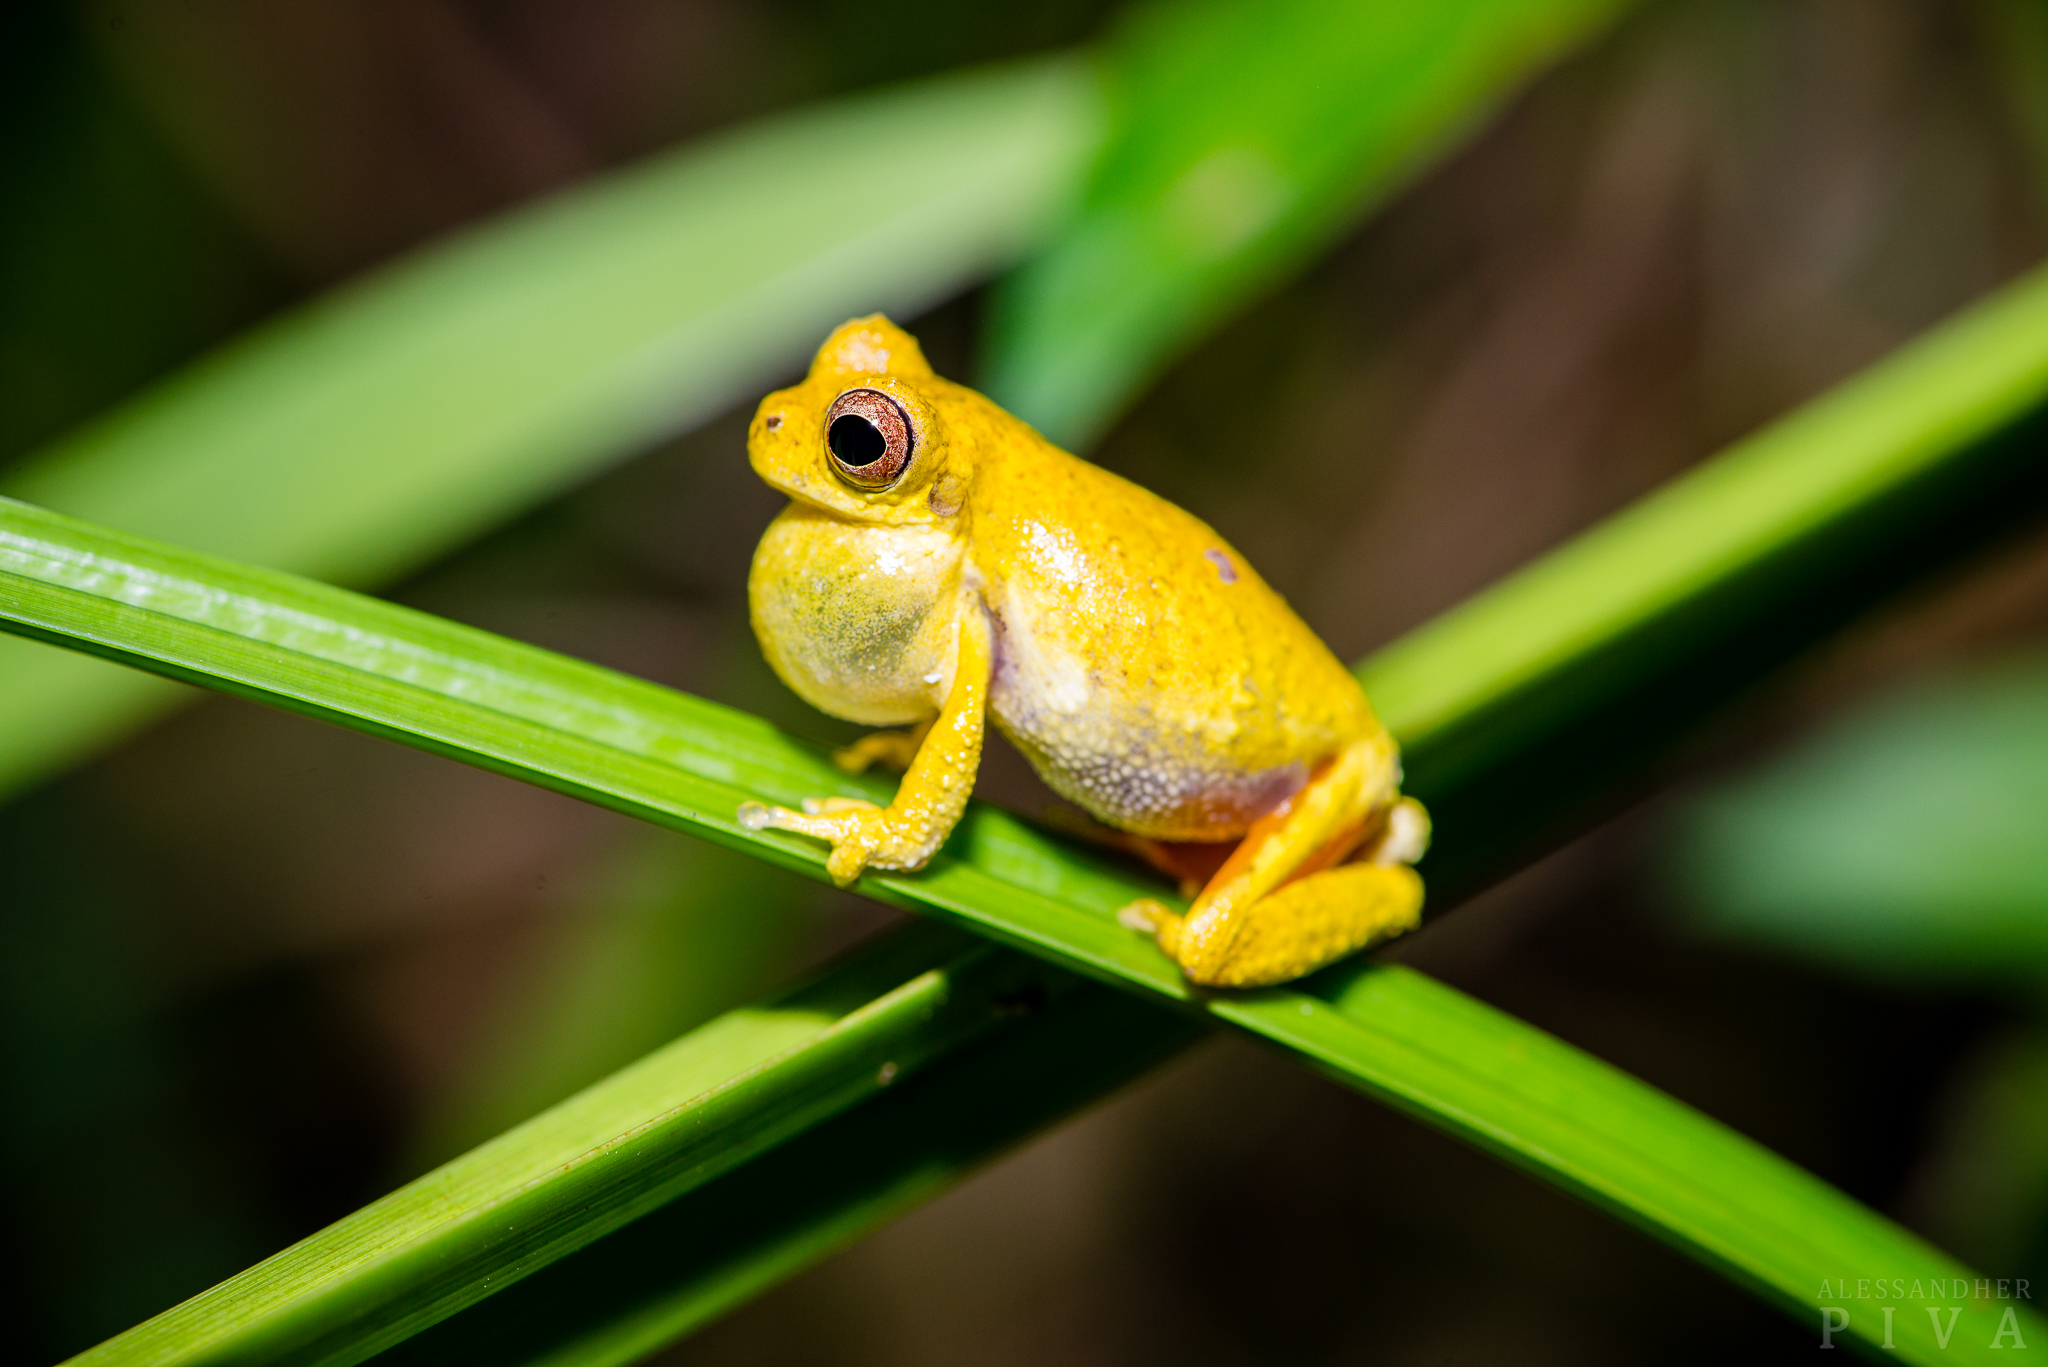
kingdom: Animalia
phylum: Chordata
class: Amphibia
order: Anura
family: Hylidae
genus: Dendropsophus
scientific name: Dendropsophus microps
